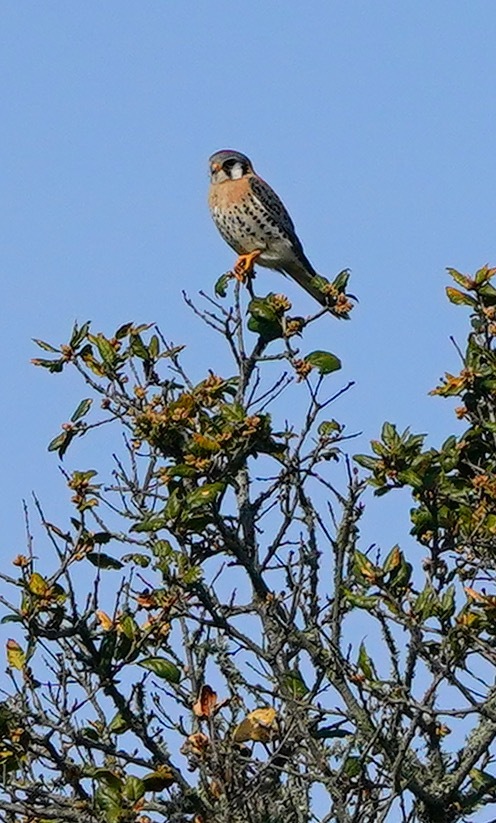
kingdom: Animalia
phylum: Chordata
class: Aves
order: Falconiformes
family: Falconidae
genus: Falco
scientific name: Falco sparverius
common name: American kestrel
